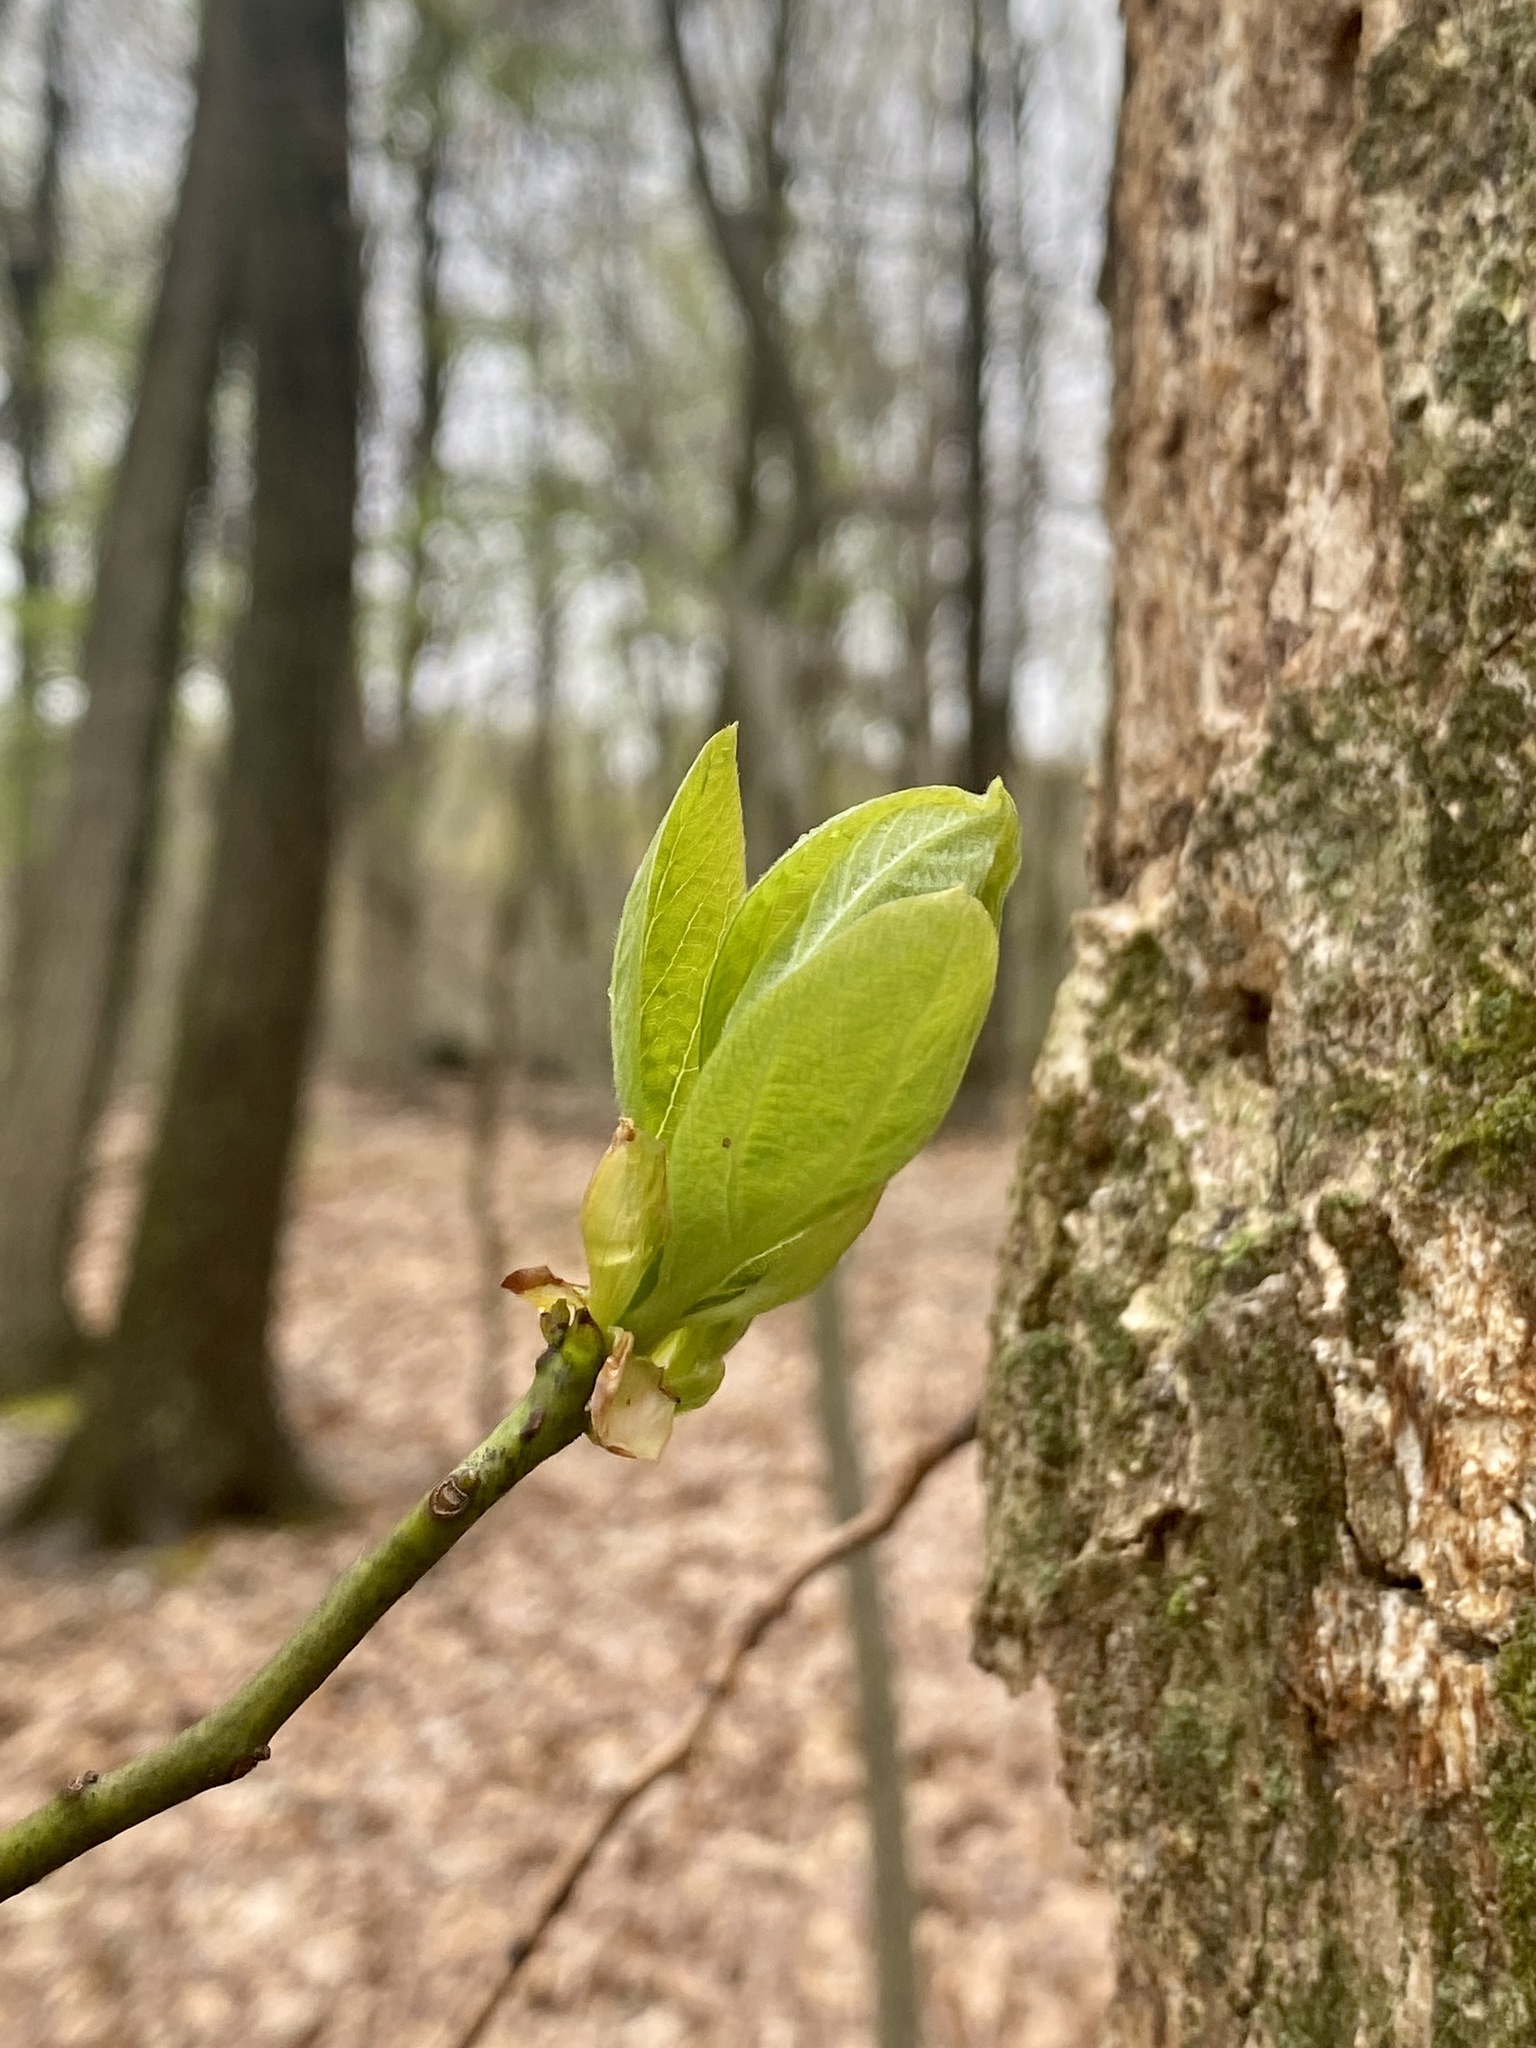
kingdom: Plantae
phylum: Tracheophyta
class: Magnoliopsida
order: Laurales
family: Lauraceae
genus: Sassafras
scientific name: Sassafras albidum
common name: Sassafras
